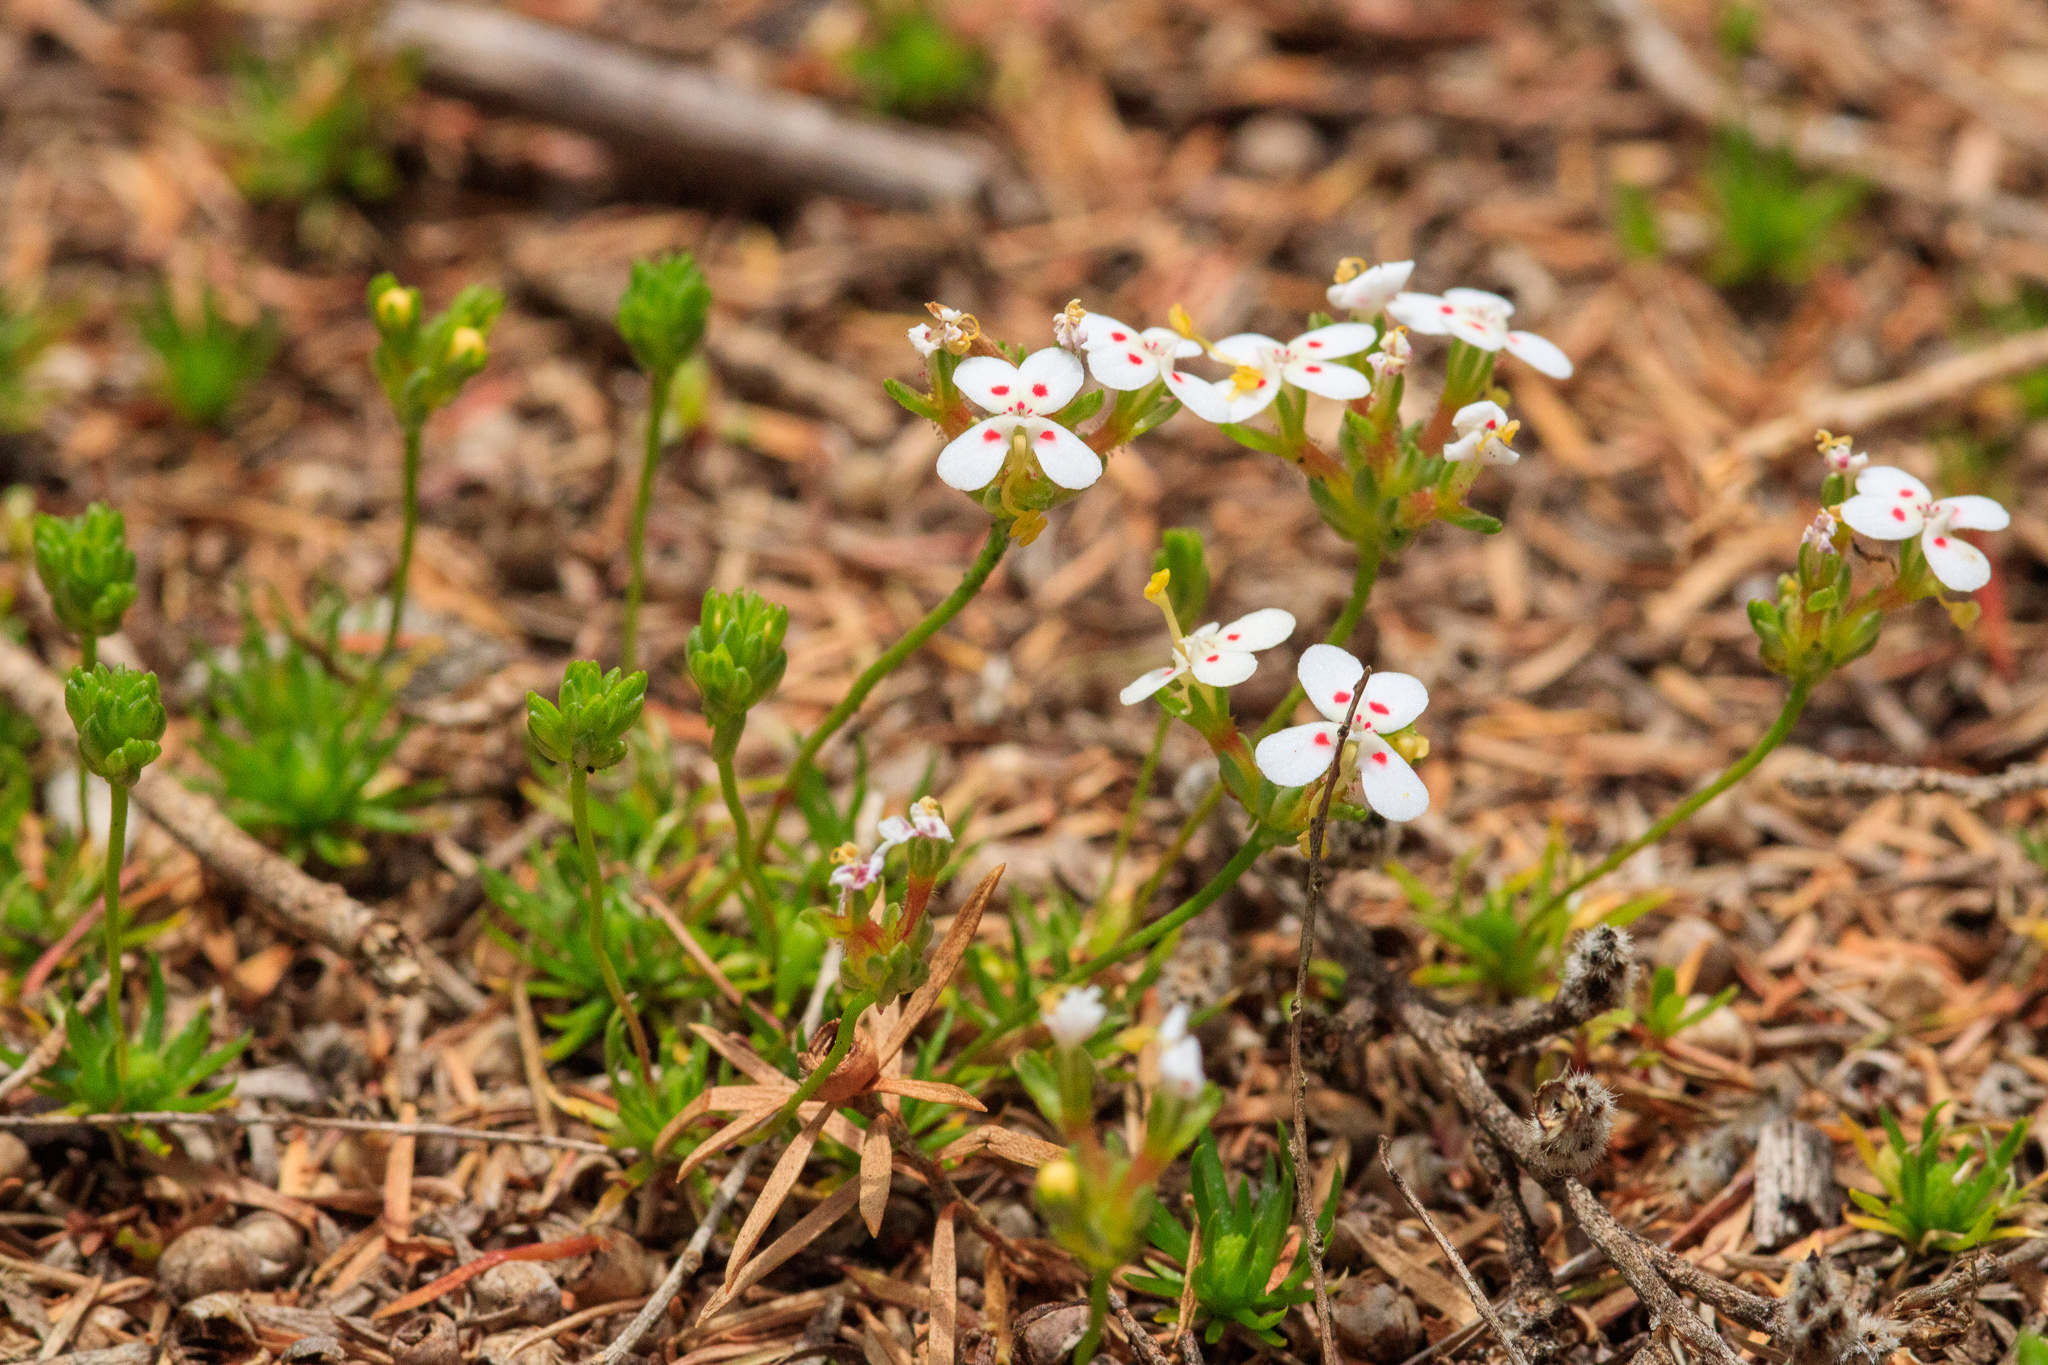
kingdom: Plantae
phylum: Tracheophyta
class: Magnoliopsida
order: Asterales
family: Stylidiaceae
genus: Stylidium
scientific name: Stylidium guttatum
